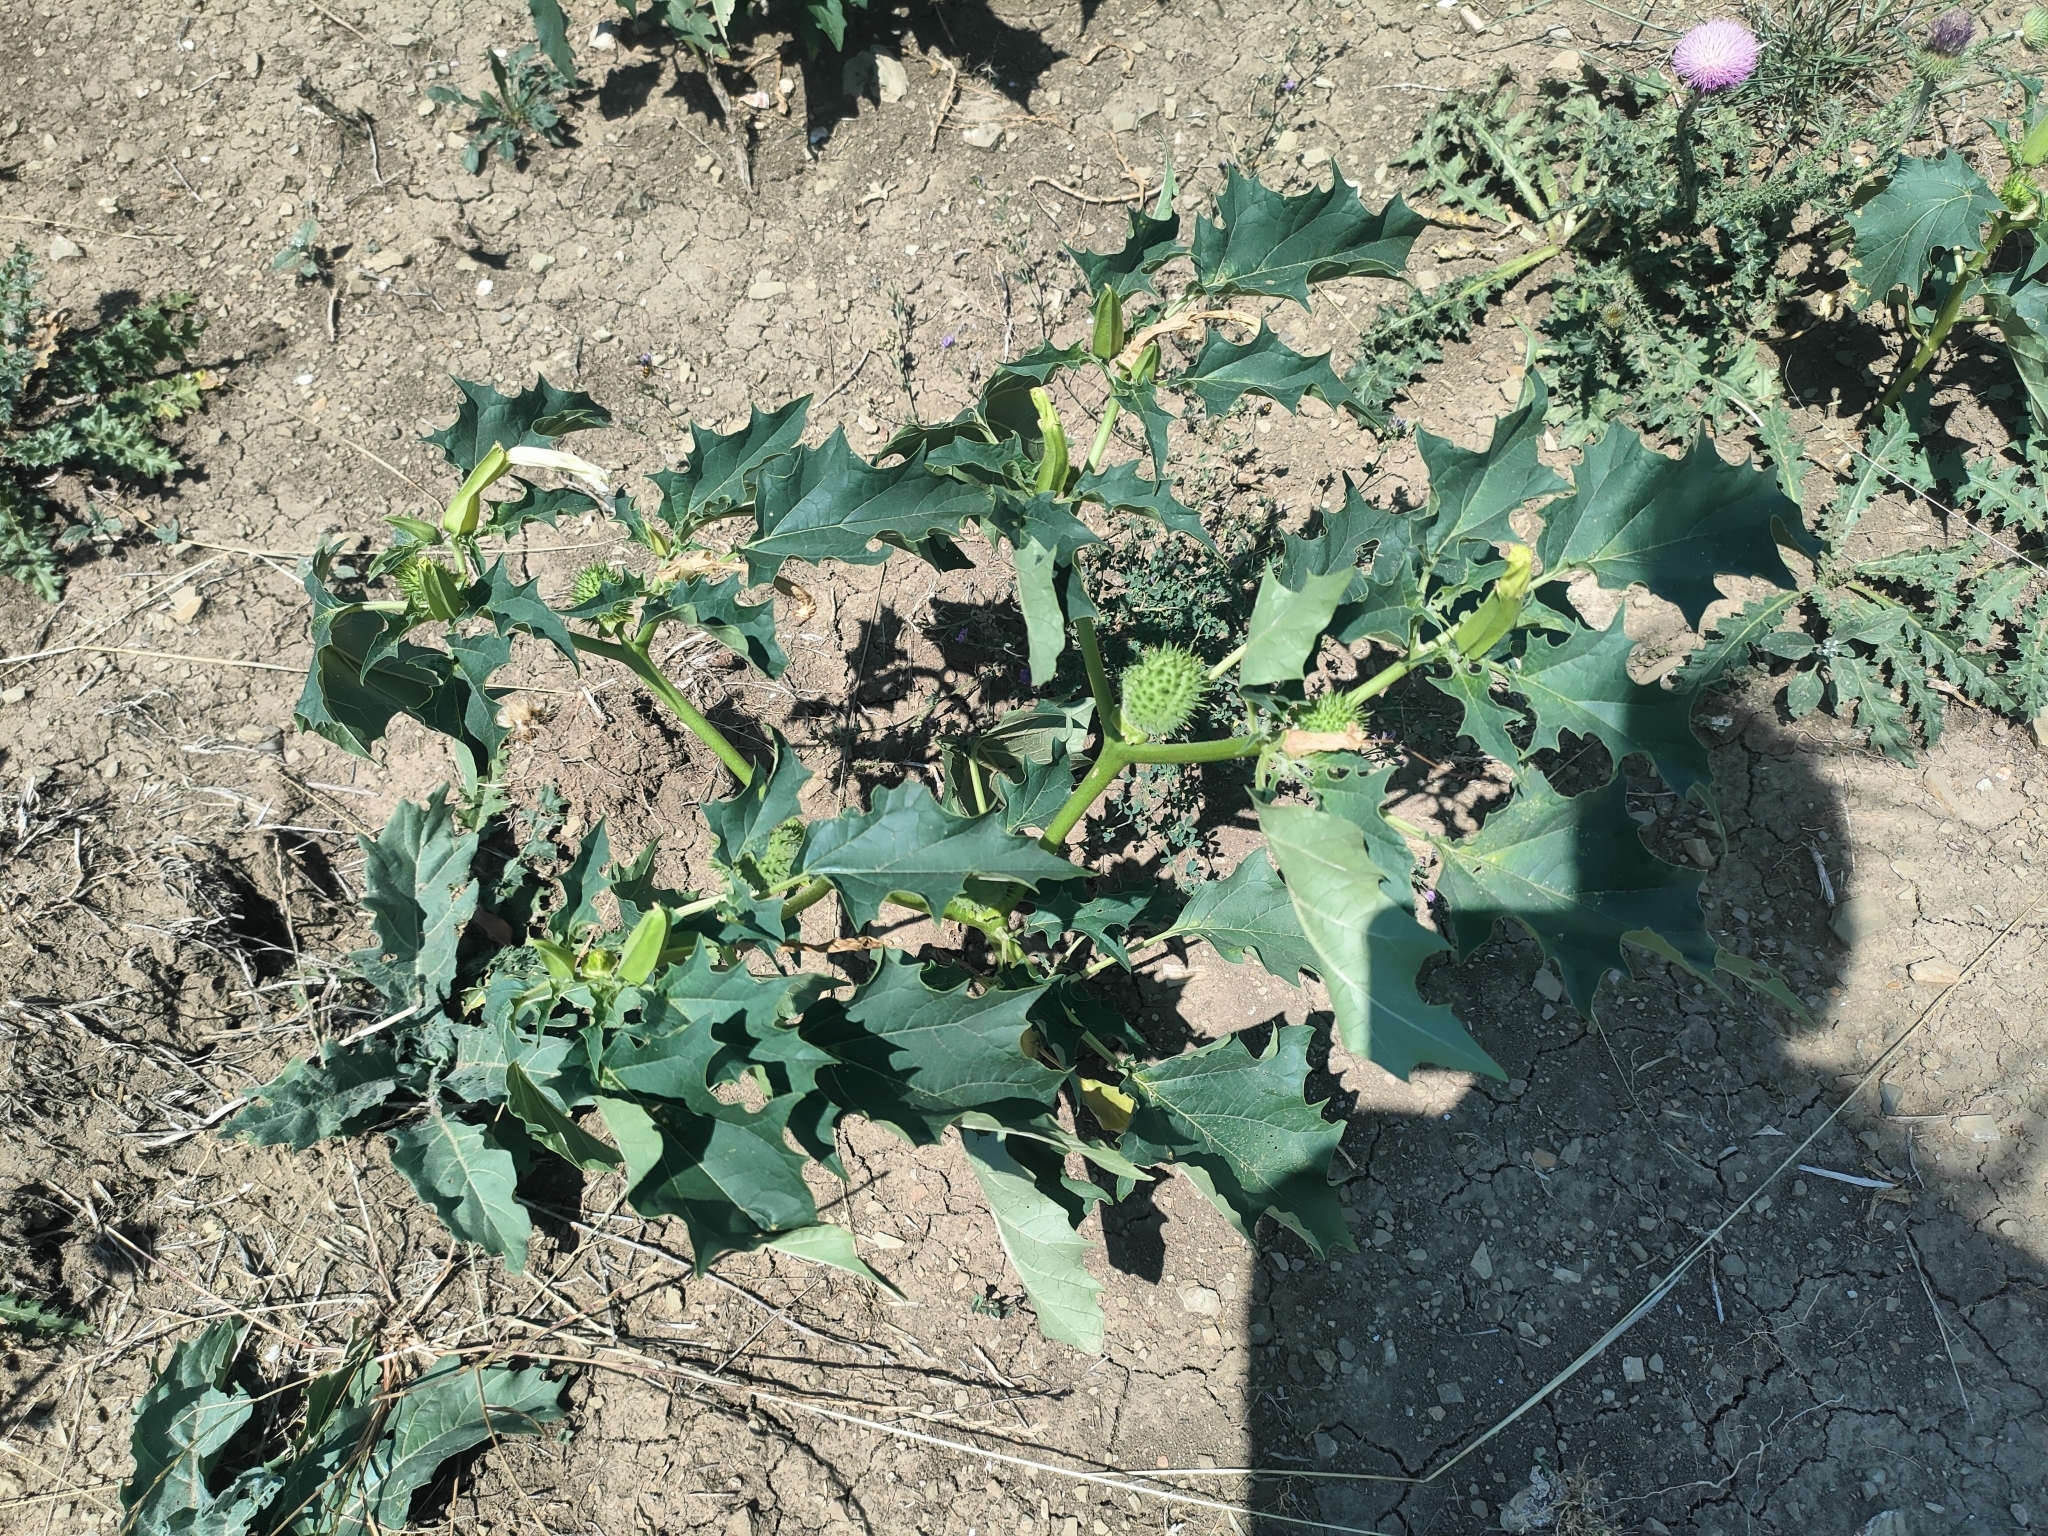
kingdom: Plantae
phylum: Tracheophyta
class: Magnoliopsida
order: Solanales
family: Solanaceae
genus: Datura
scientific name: Datura stramonium
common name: Thorn-apple
